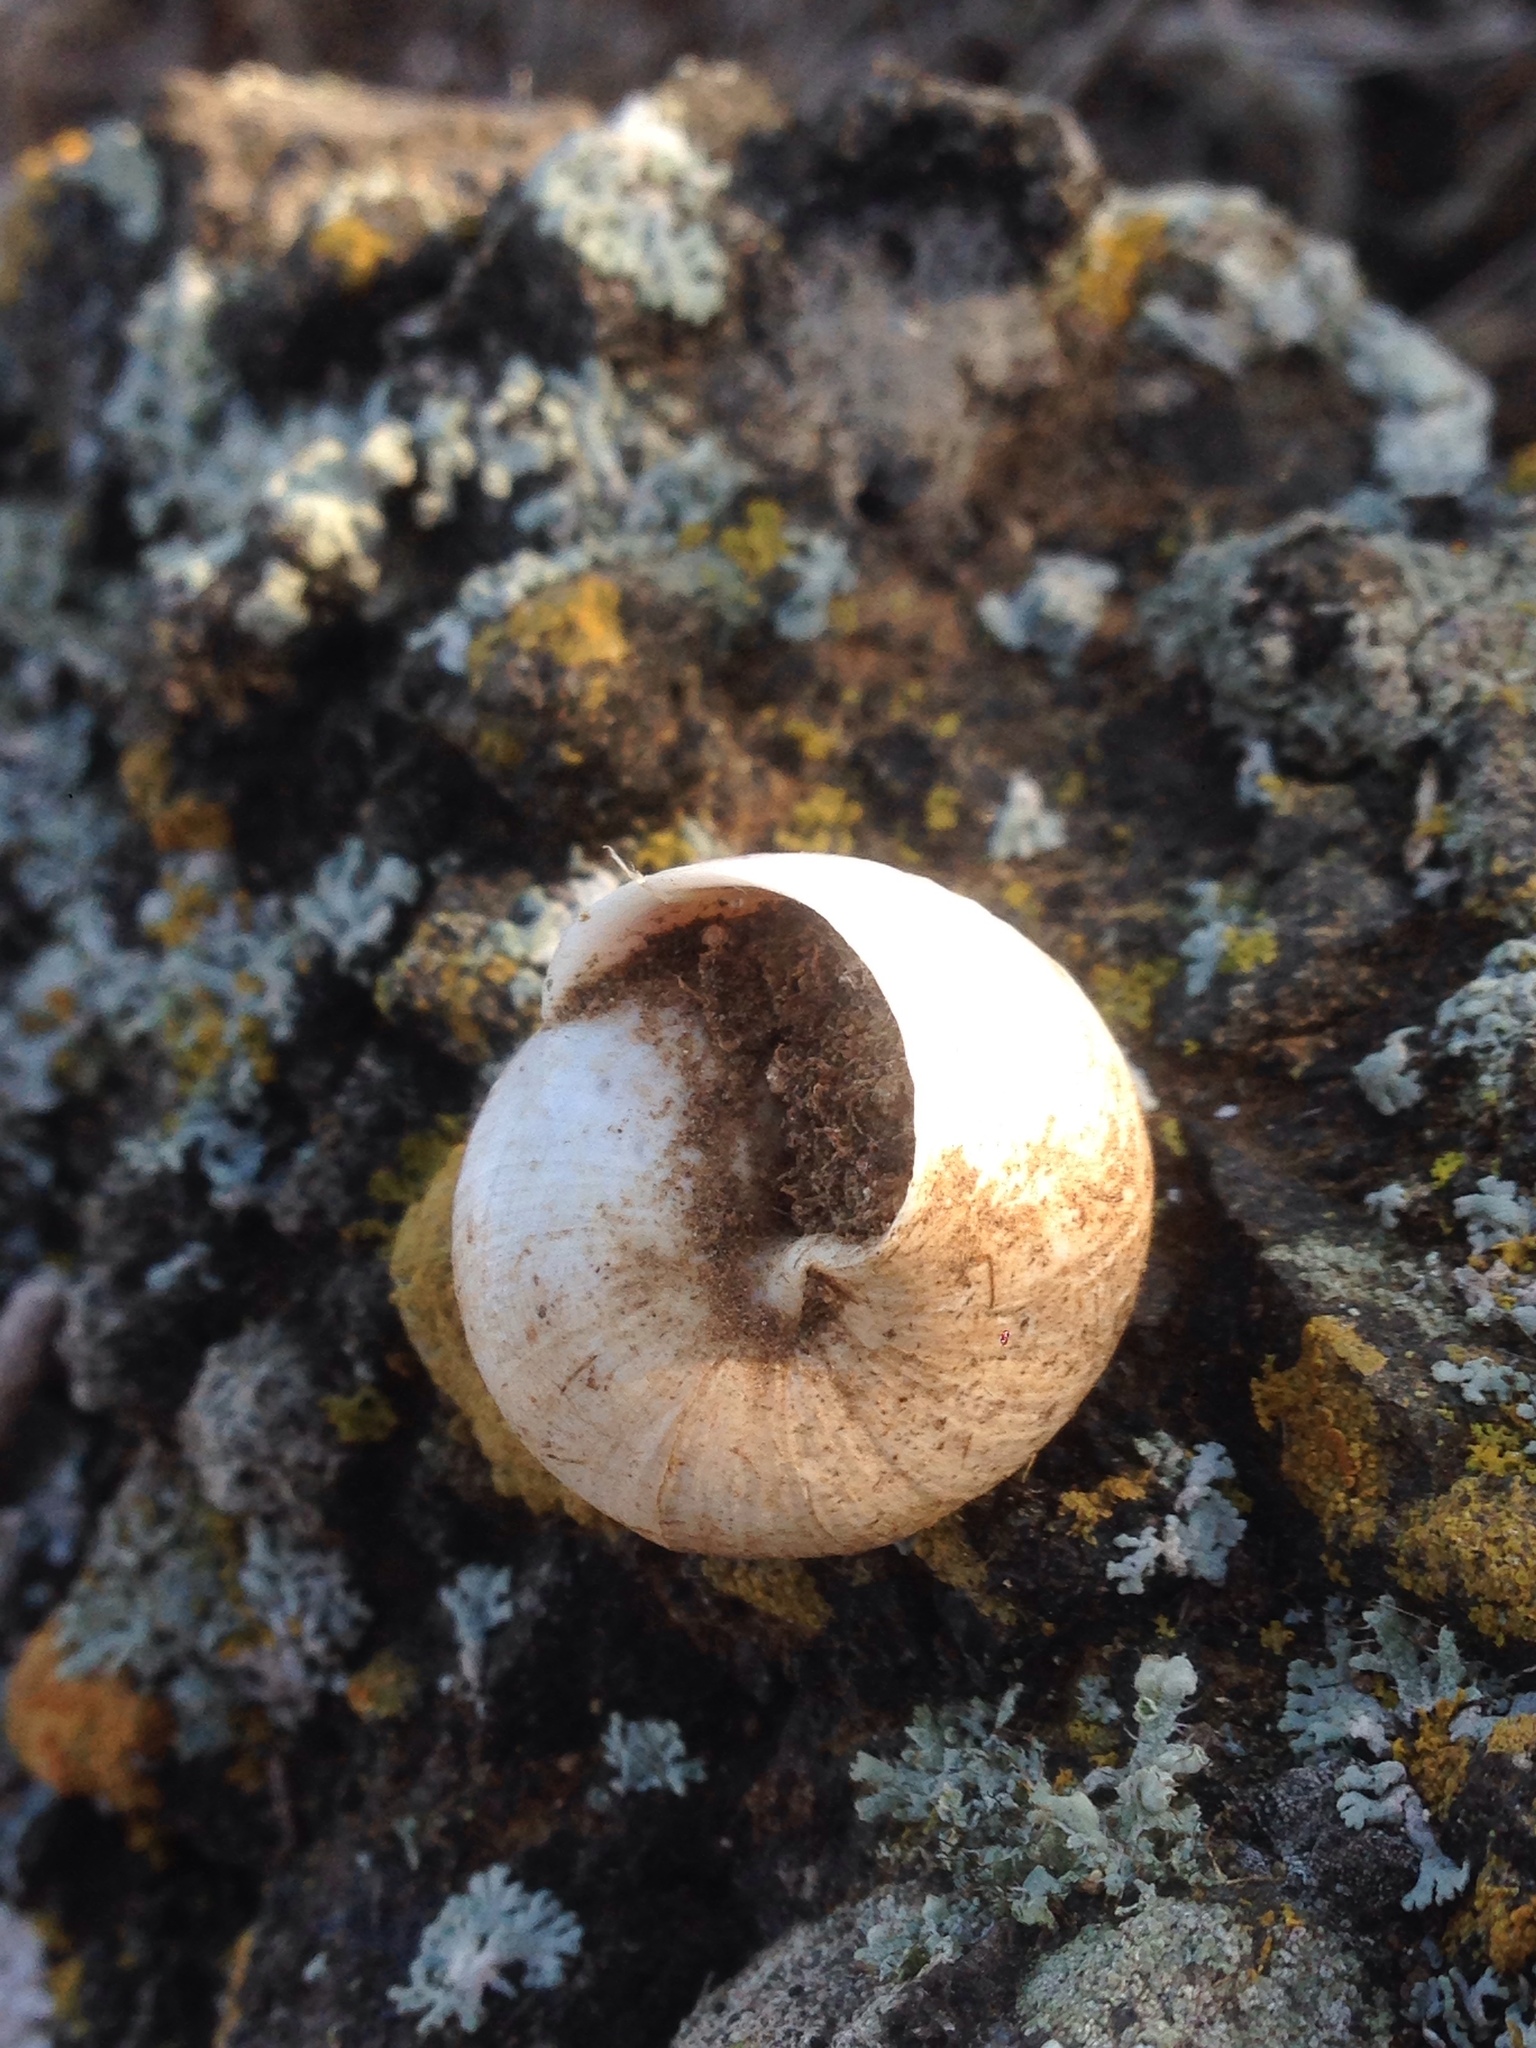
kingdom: Animalia
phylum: Mollusca
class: Gastropoda
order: Stylommatophora
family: Xanthonychidae
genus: Xerarionta
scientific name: Xerarionta tryoni
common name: Bicolor cactus snail
